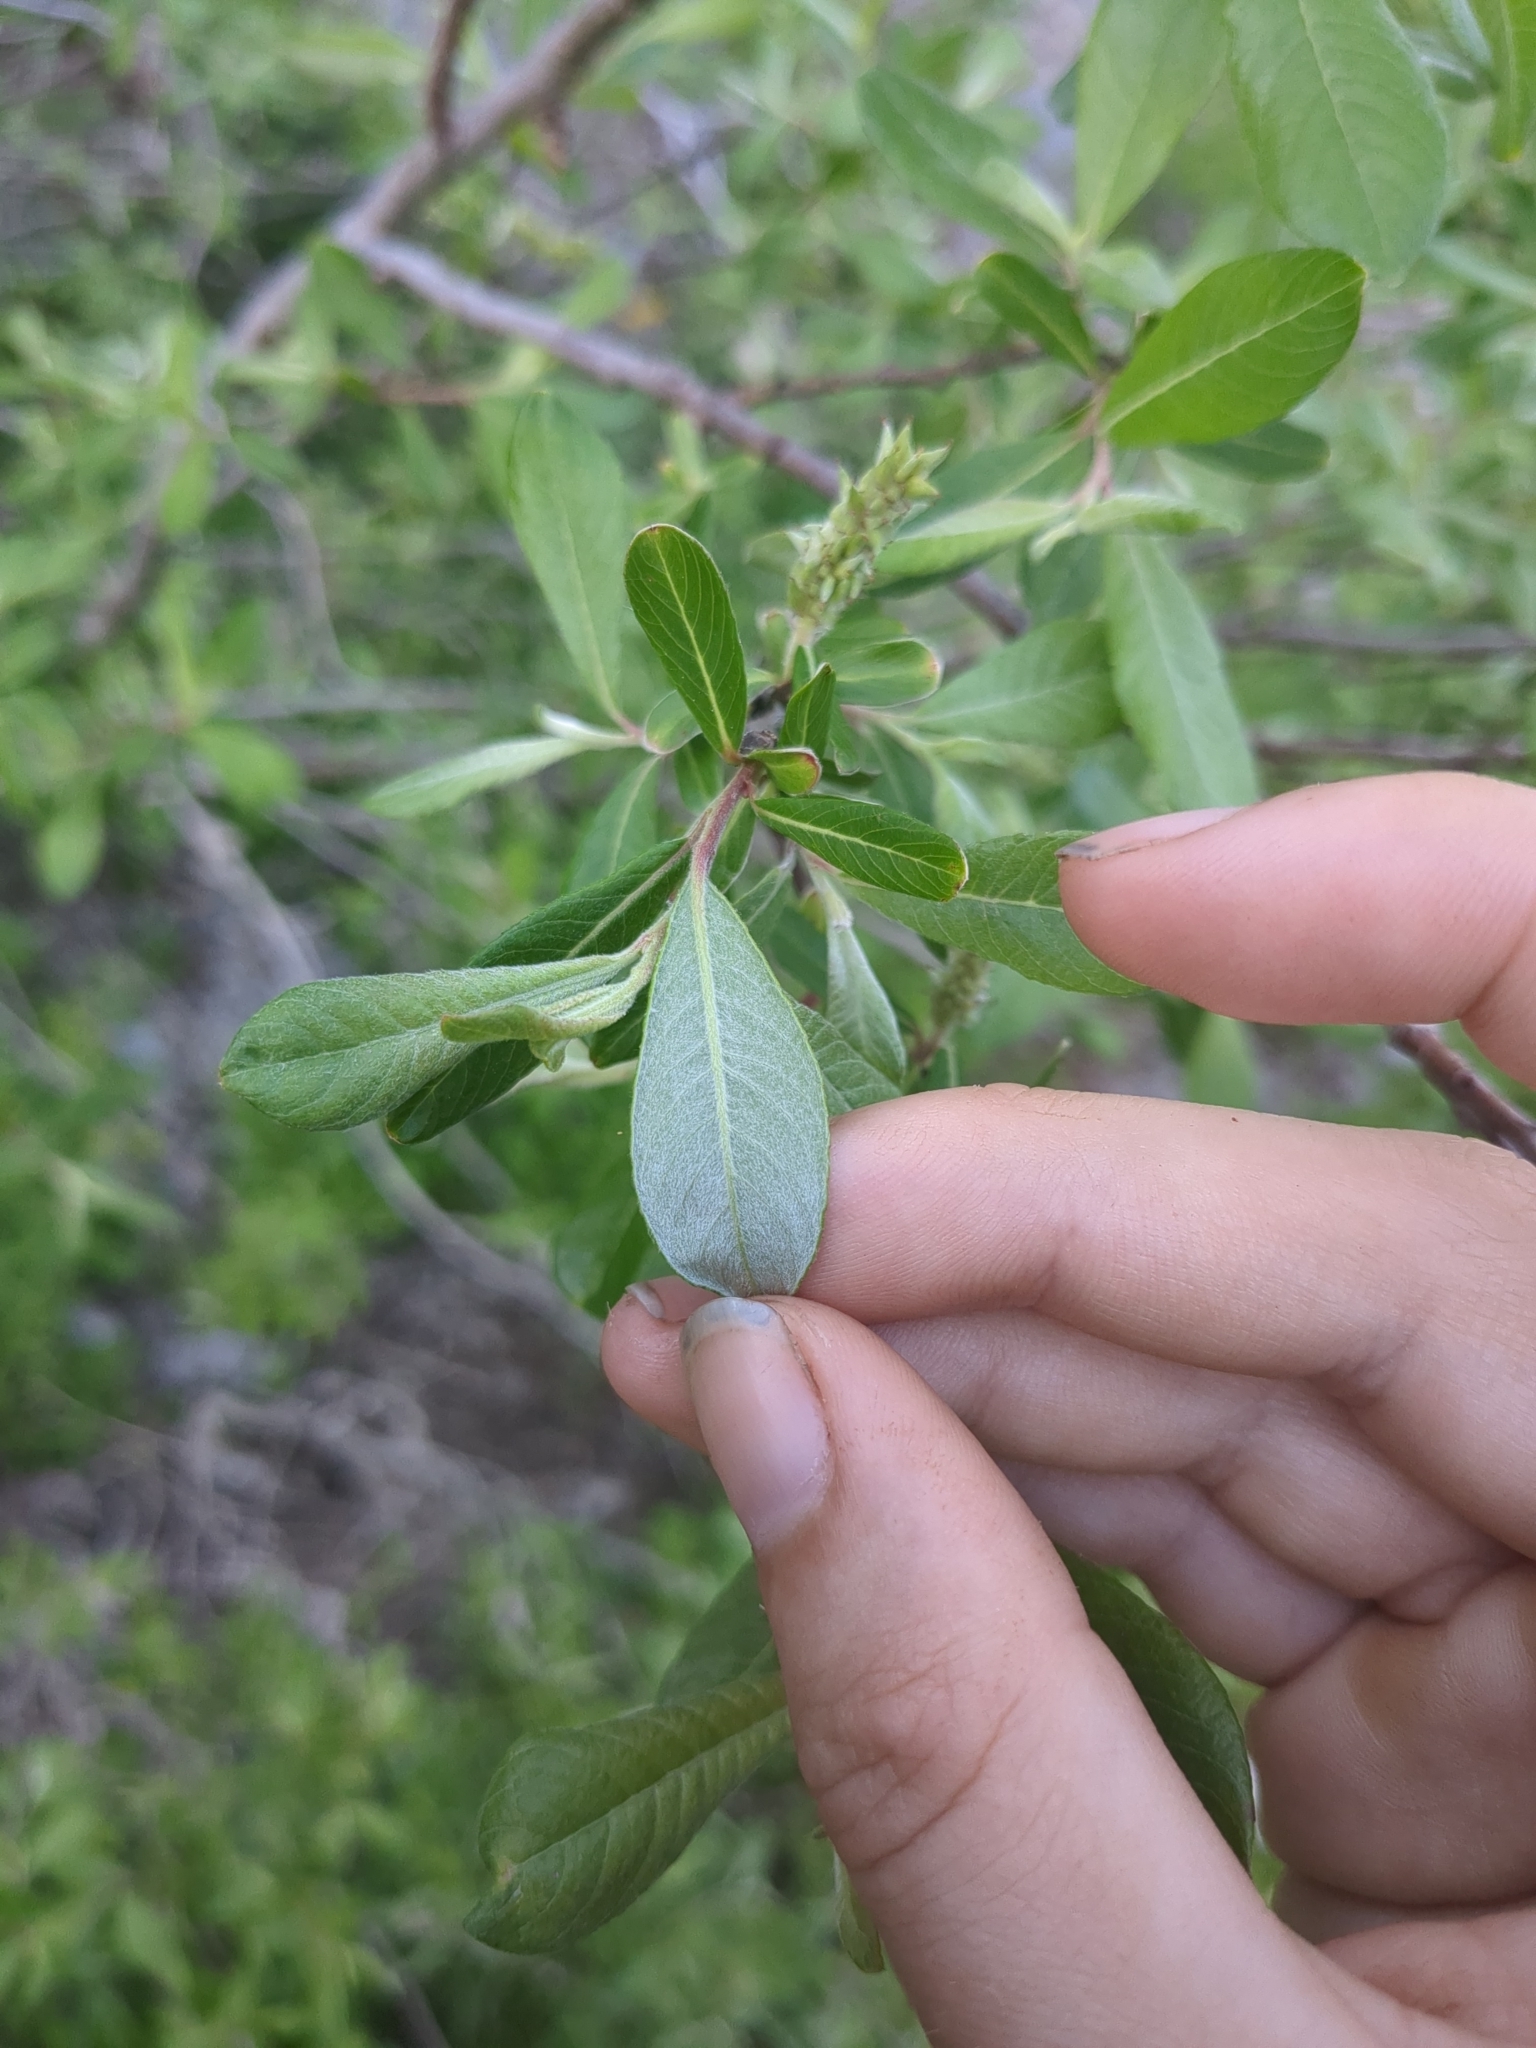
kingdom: Plantae
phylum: Tracheophyta
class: Magnoliopsida
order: Malpighiales
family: Salicaceae
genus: Salix
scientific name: Salix sitchensis
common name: Sitka willow
